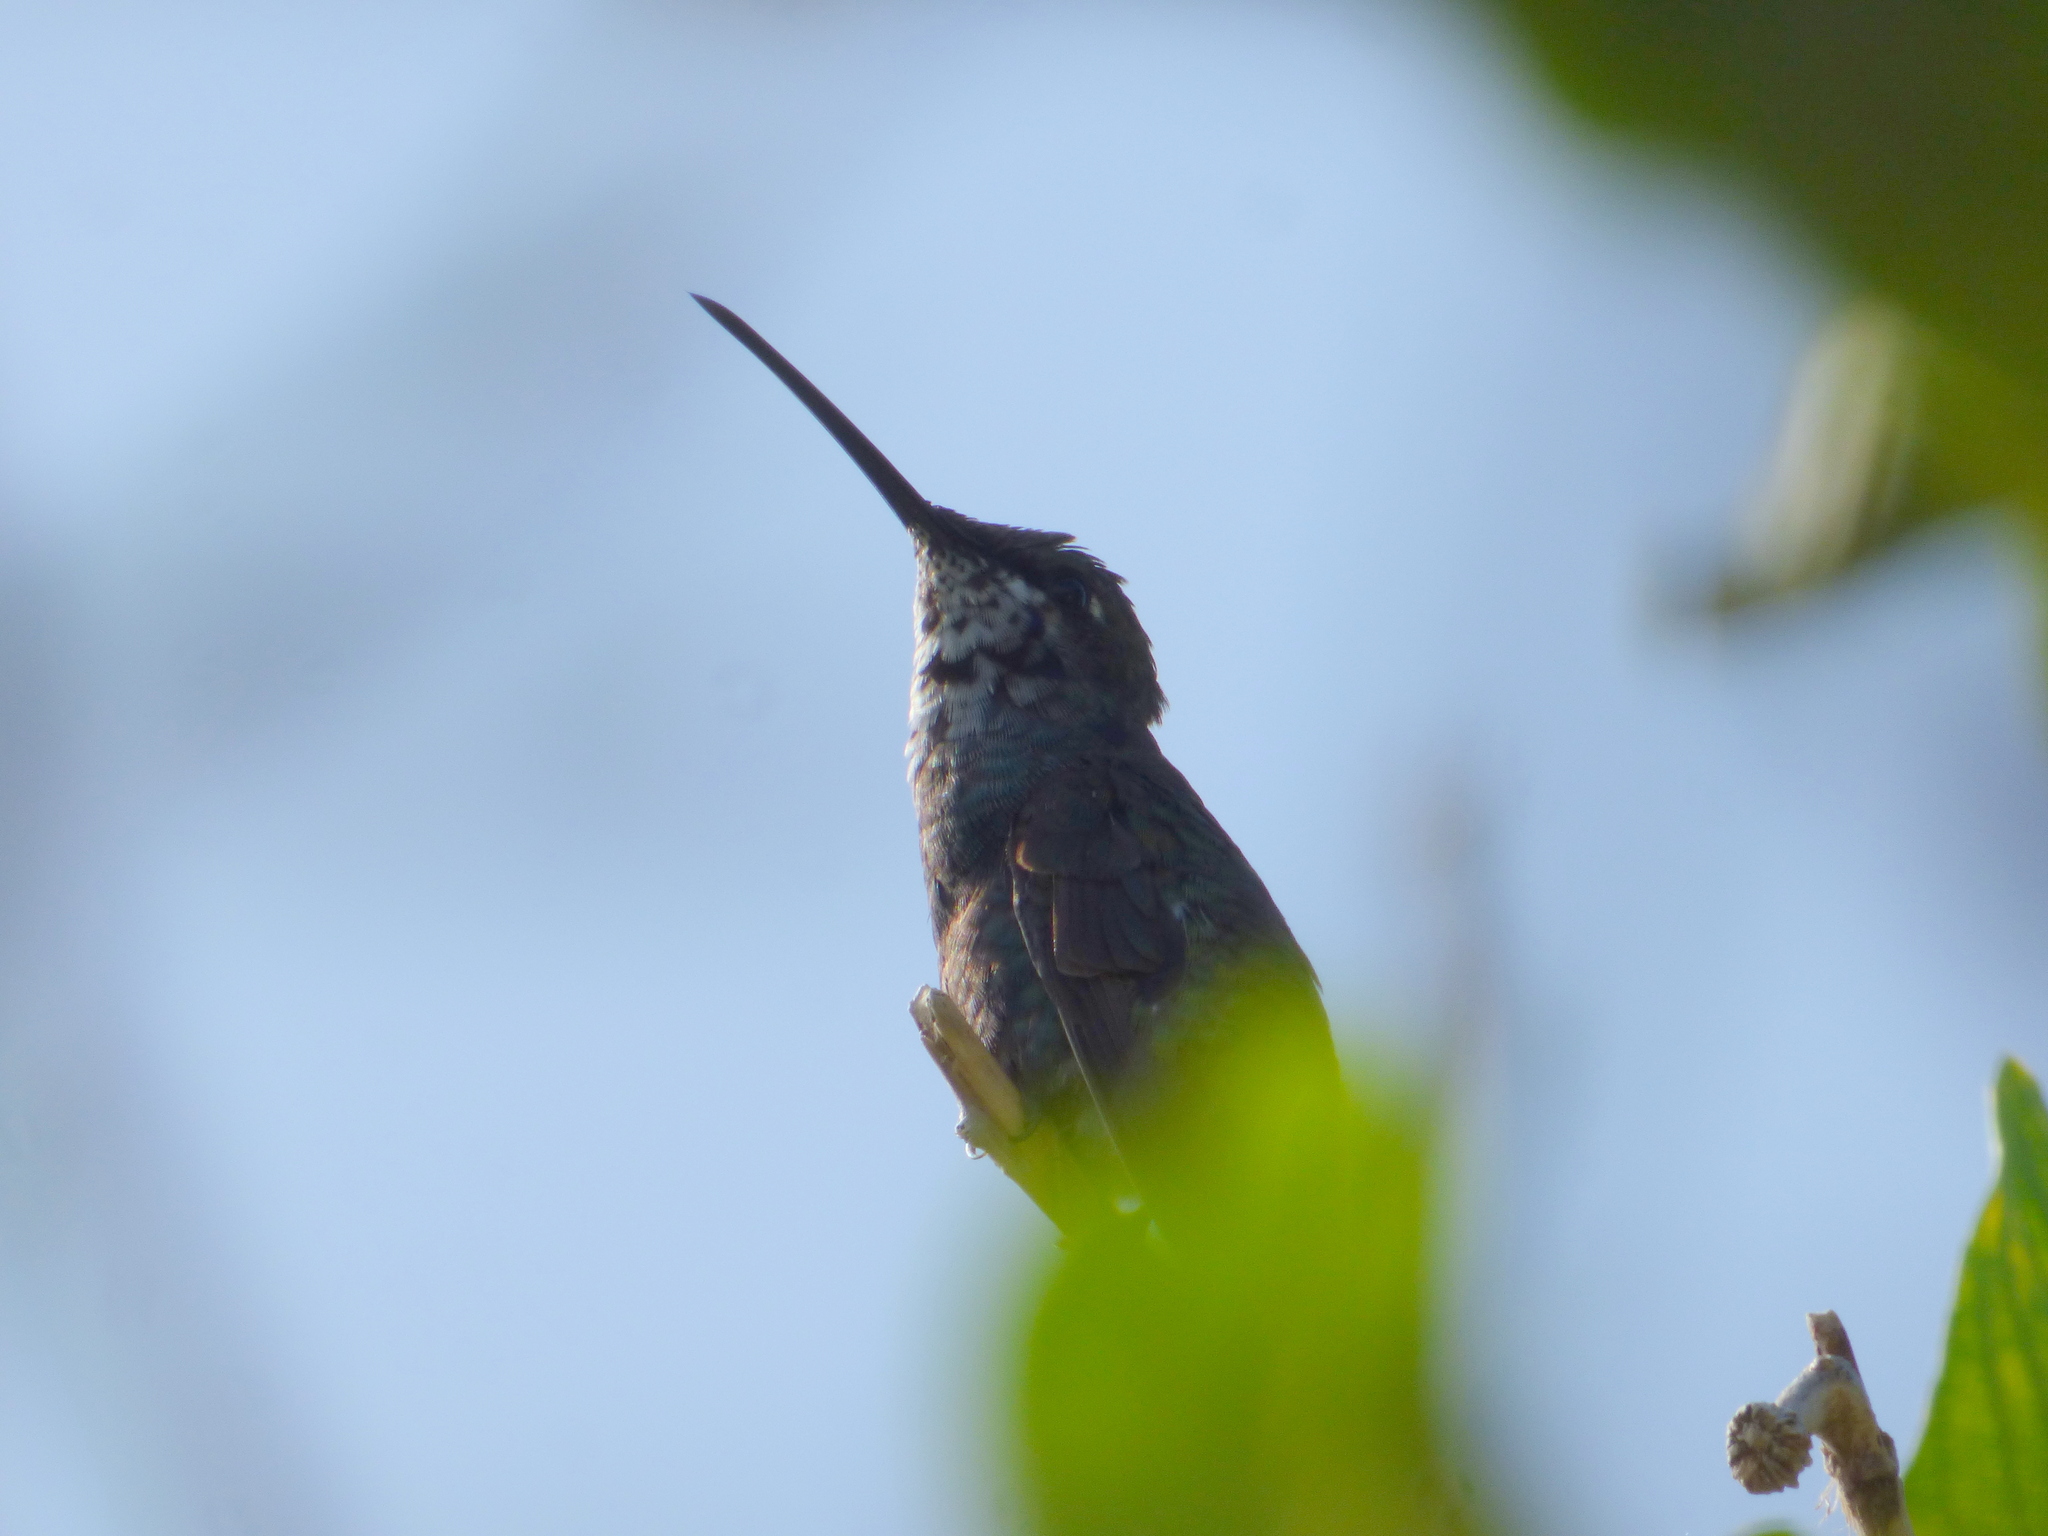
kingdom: Animalia
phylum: Chordata
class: Aves
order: Apodiformes
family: Trochilidae
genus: Heliomaster
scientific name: Heliomaster furcifer
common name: Blue-tufted starthroat
